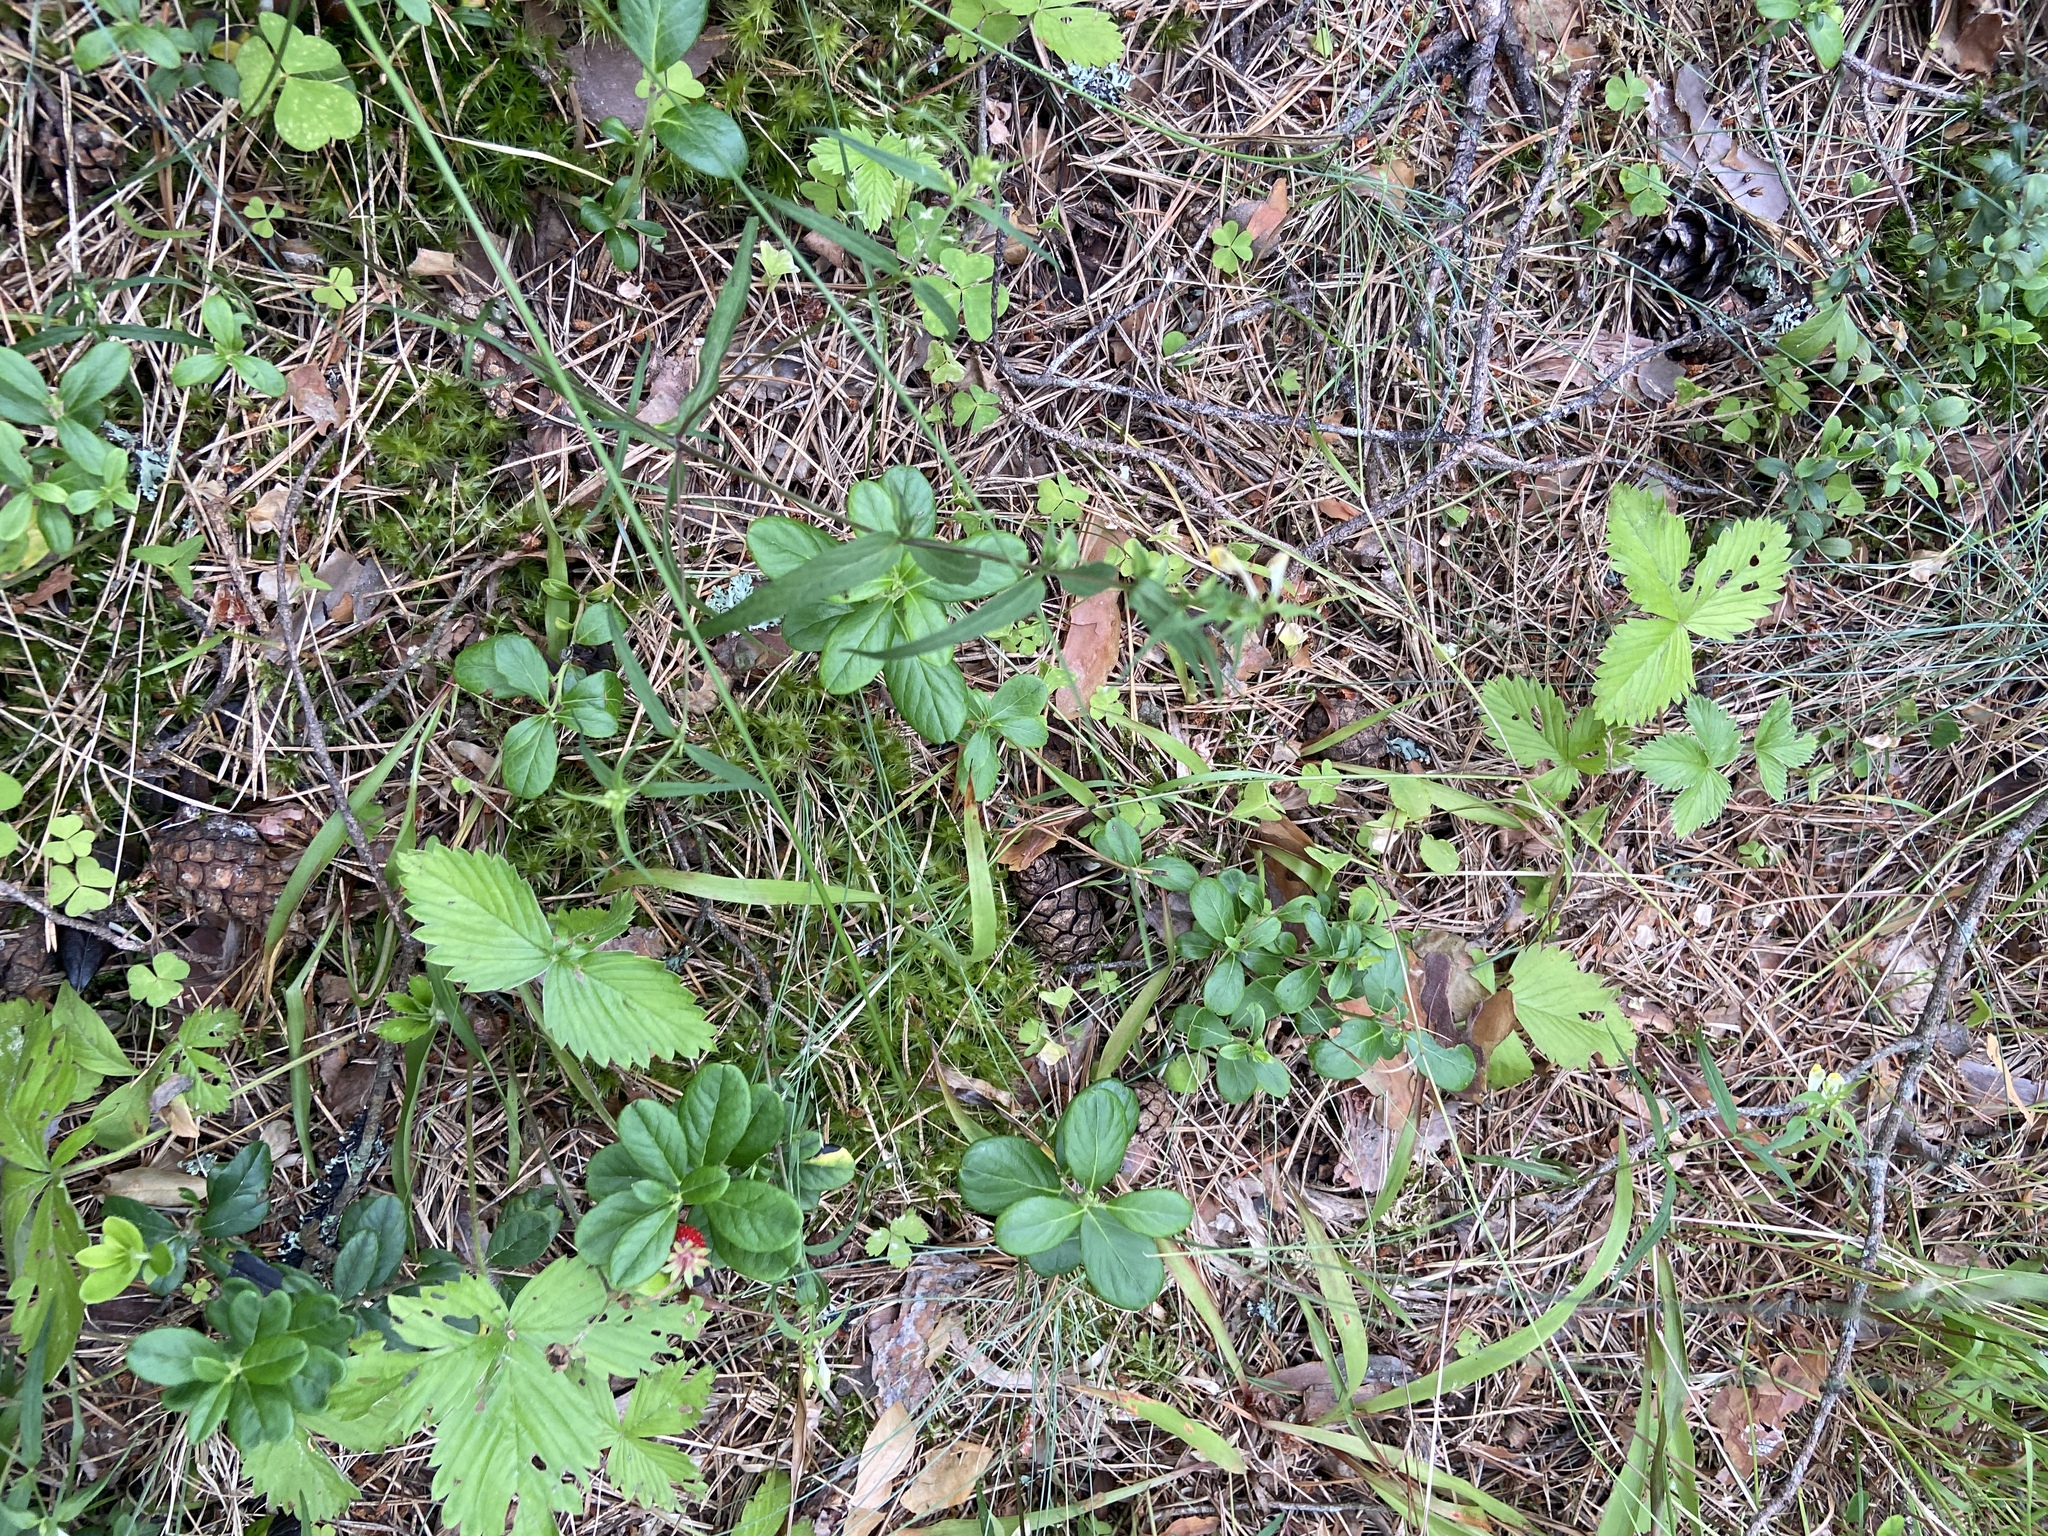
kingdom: Plantae
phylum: Tracheophyta
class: Magnoliopsida
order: Ericales
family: Ericaceae
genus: Vaccinium
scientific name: Vaccinium vitis-idaea
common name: Cowberry
